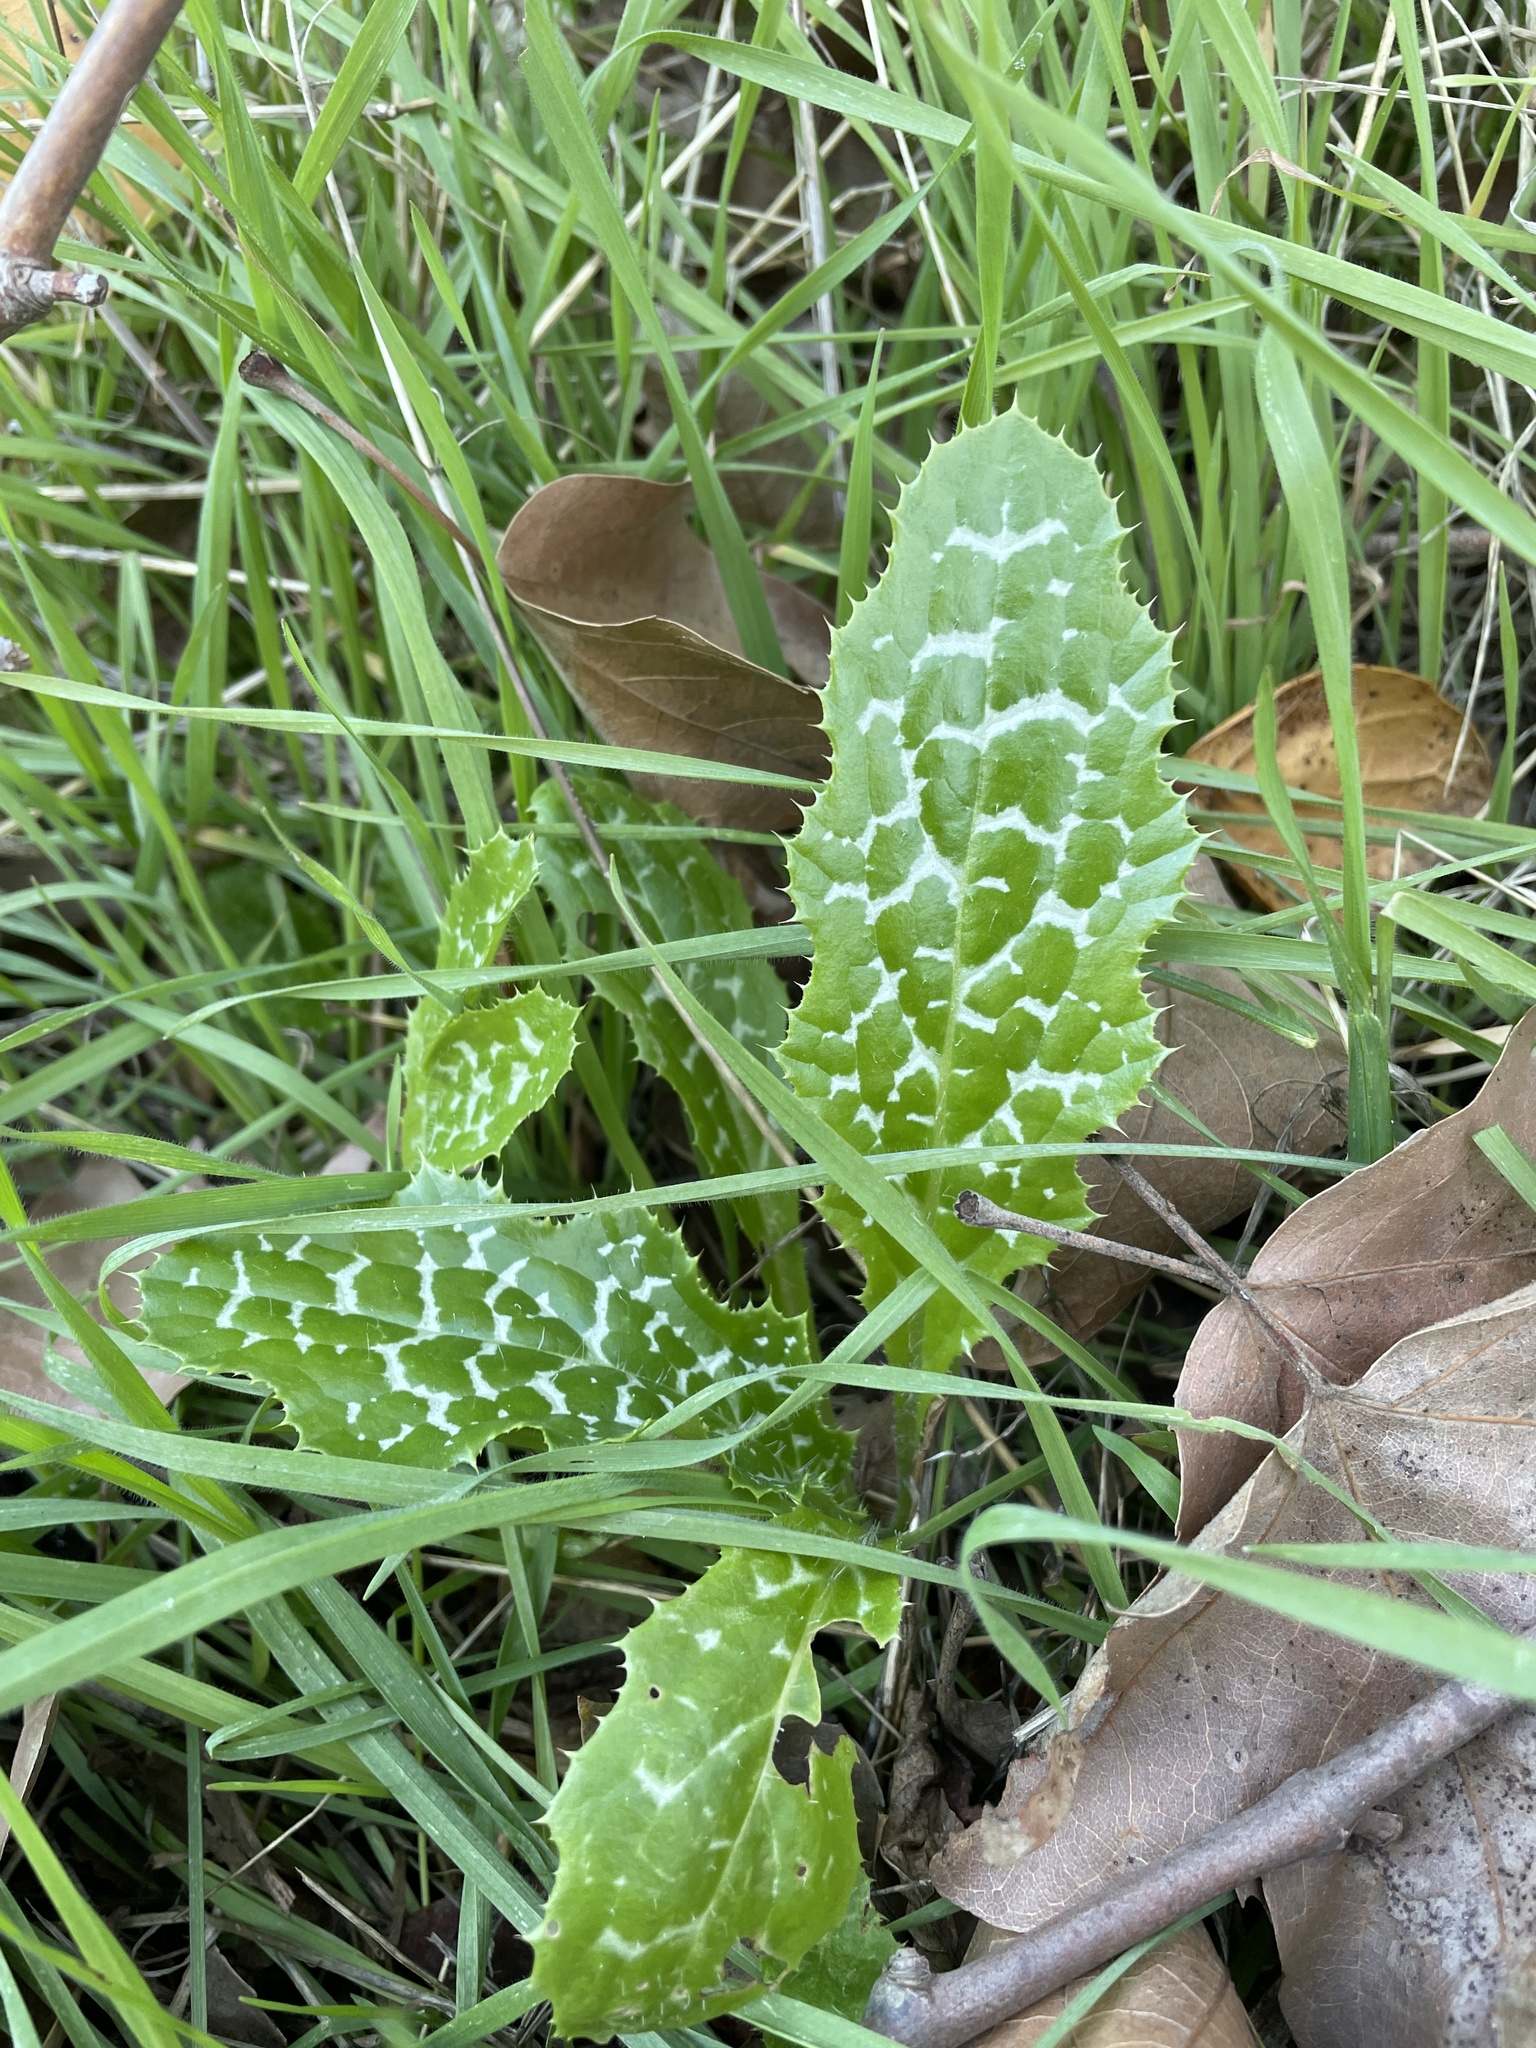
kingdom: Plantae
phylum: Tracheophyta
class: Magnoliopsida
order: Asterales
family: Asteraceae
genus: Silybum
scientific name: Silybum marianum
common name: Milk thistle
